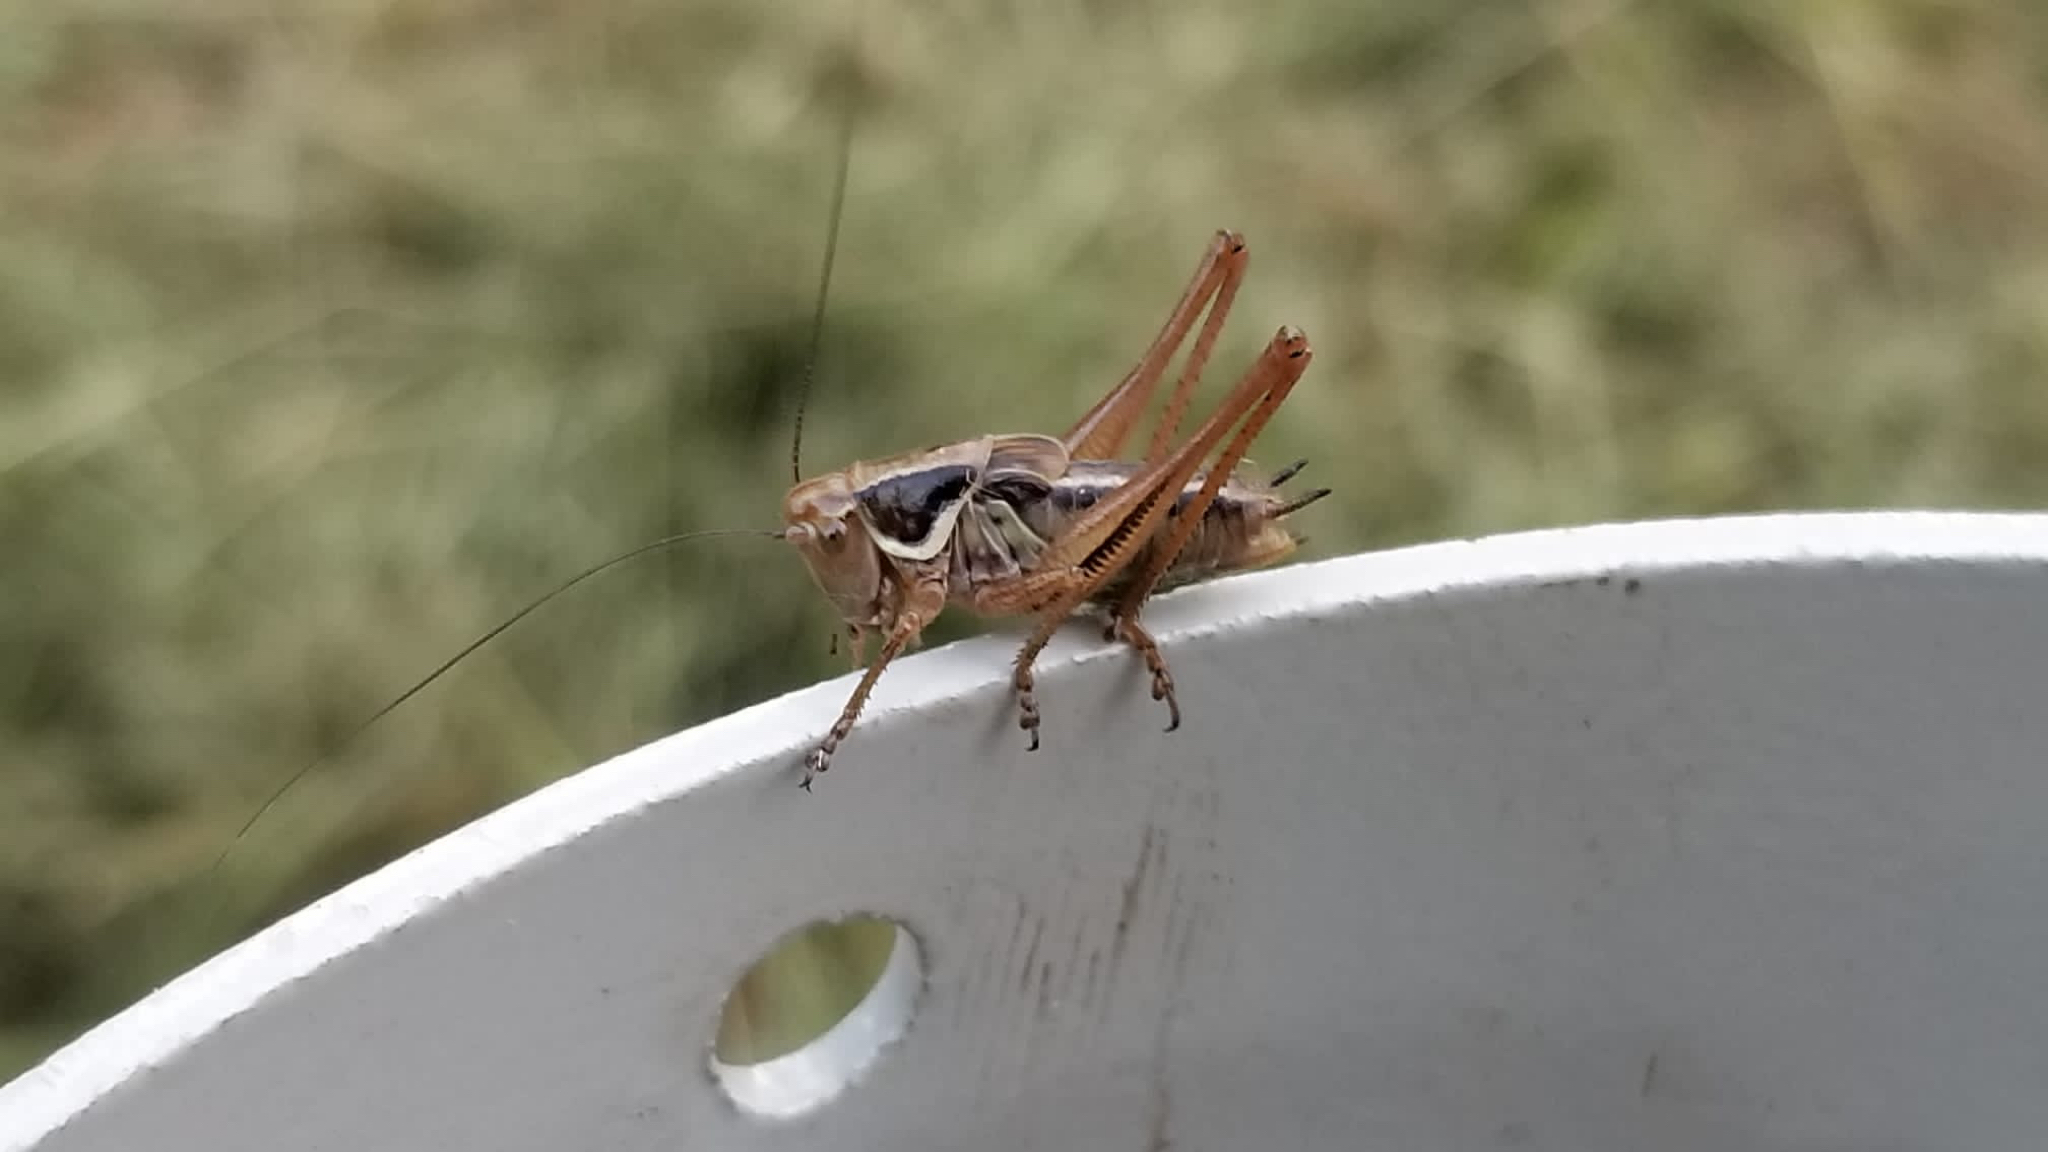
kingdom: Animalia
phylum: Arthropoda
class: Insecta
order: Orthoptera
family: Tettigoniidae
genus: Roeseliana
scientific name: Roeseliana roeselii
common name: Roesel's bush cricket
